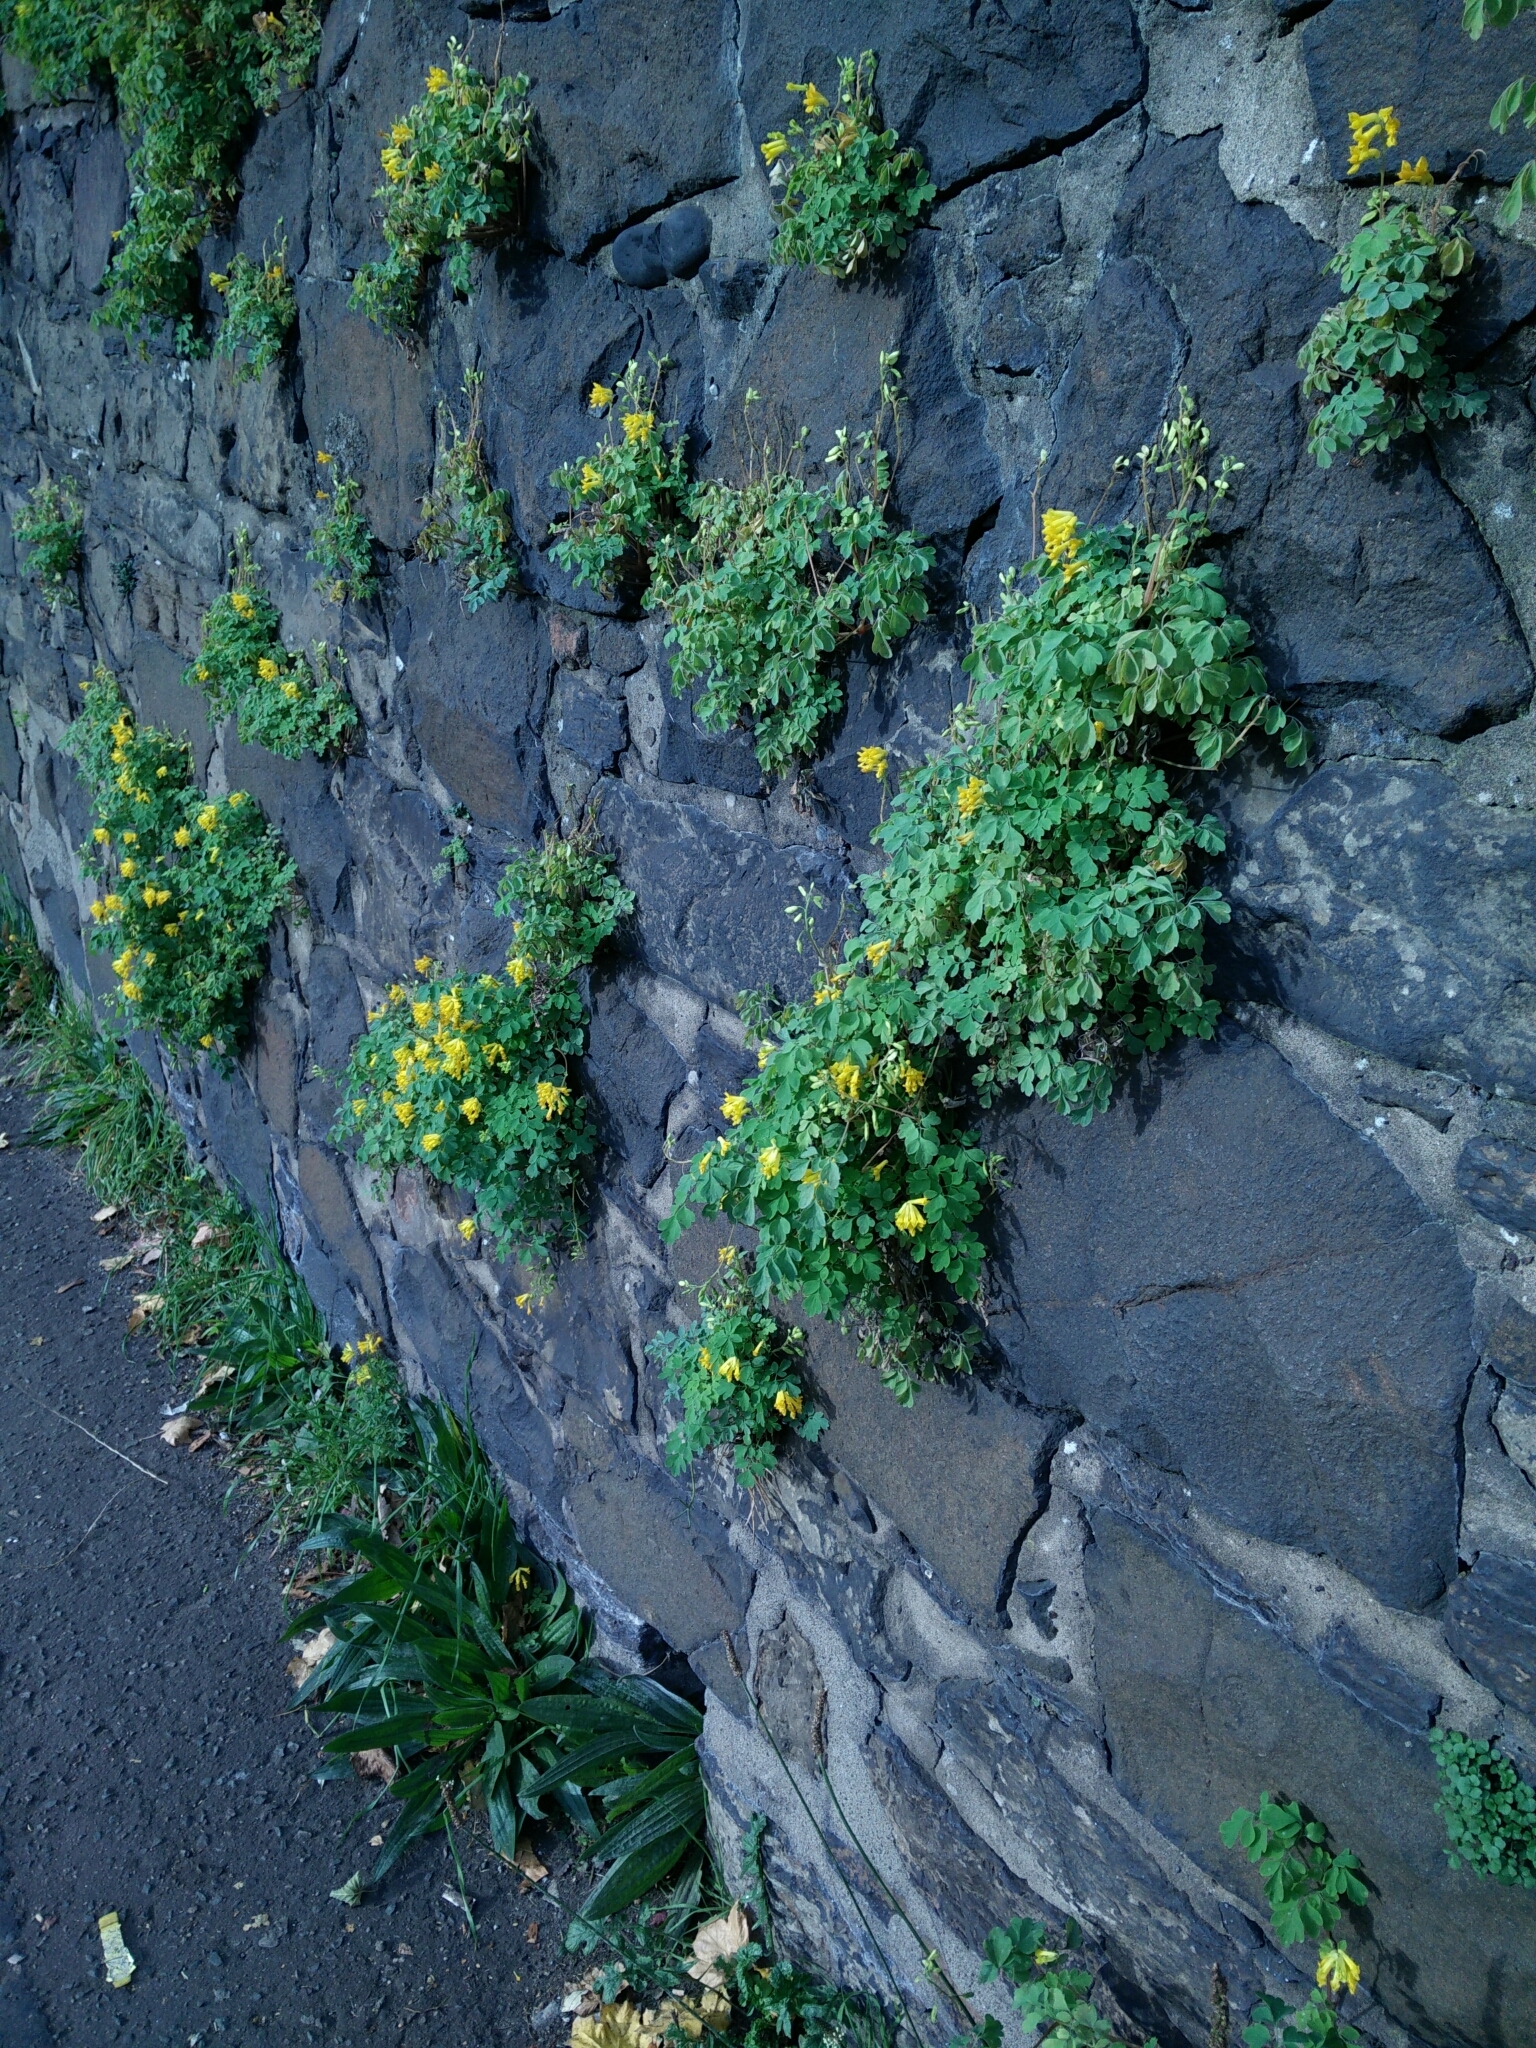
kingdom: Plantae
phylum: Tracheophyta
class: Magnoliopsida
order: Ranunculales
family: Papaveraceae
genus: Pseudofumaria
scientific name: Pseudofumaria lutea
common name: Yellow corydalis
